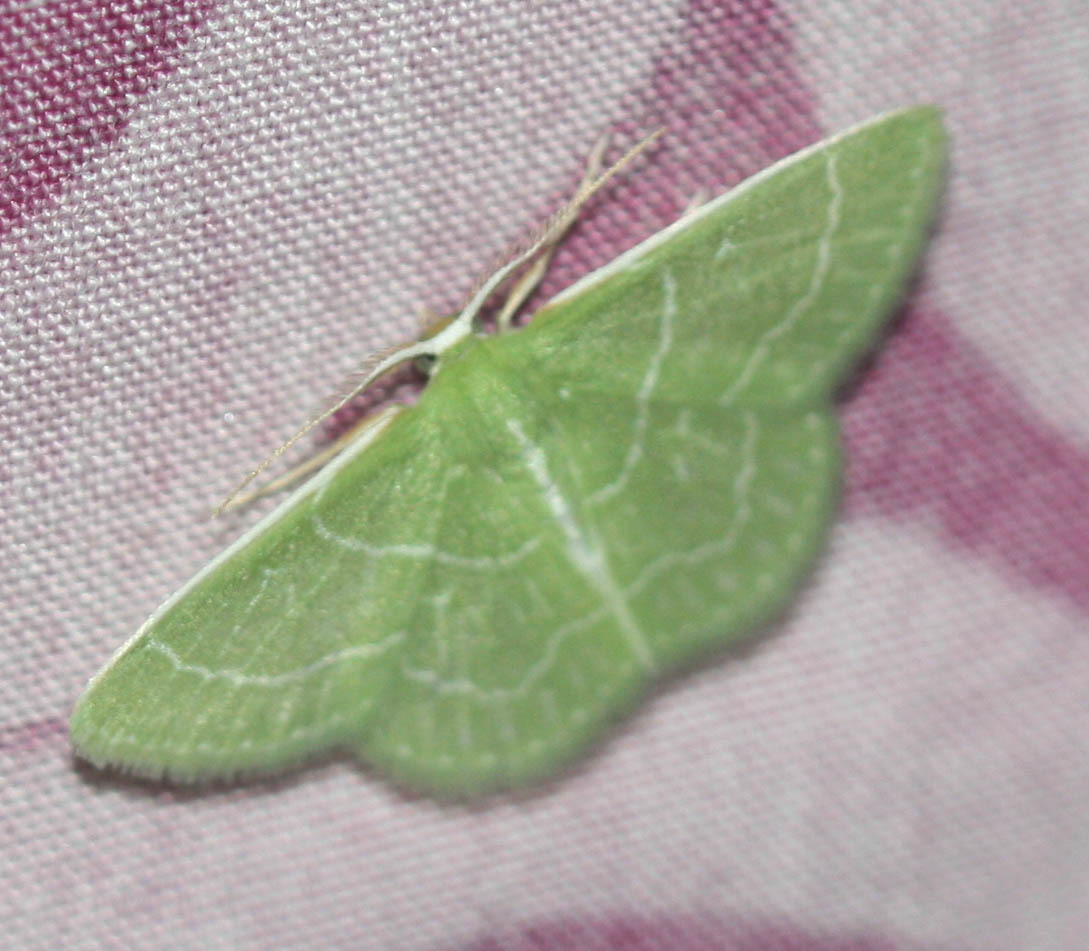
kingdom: Animalia
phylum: Arthropoda
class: Insecta
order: Lepidoptera
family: Geometridae
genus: Synchlora
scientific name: Synchlora aerata
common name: Wavy-lined emerald
